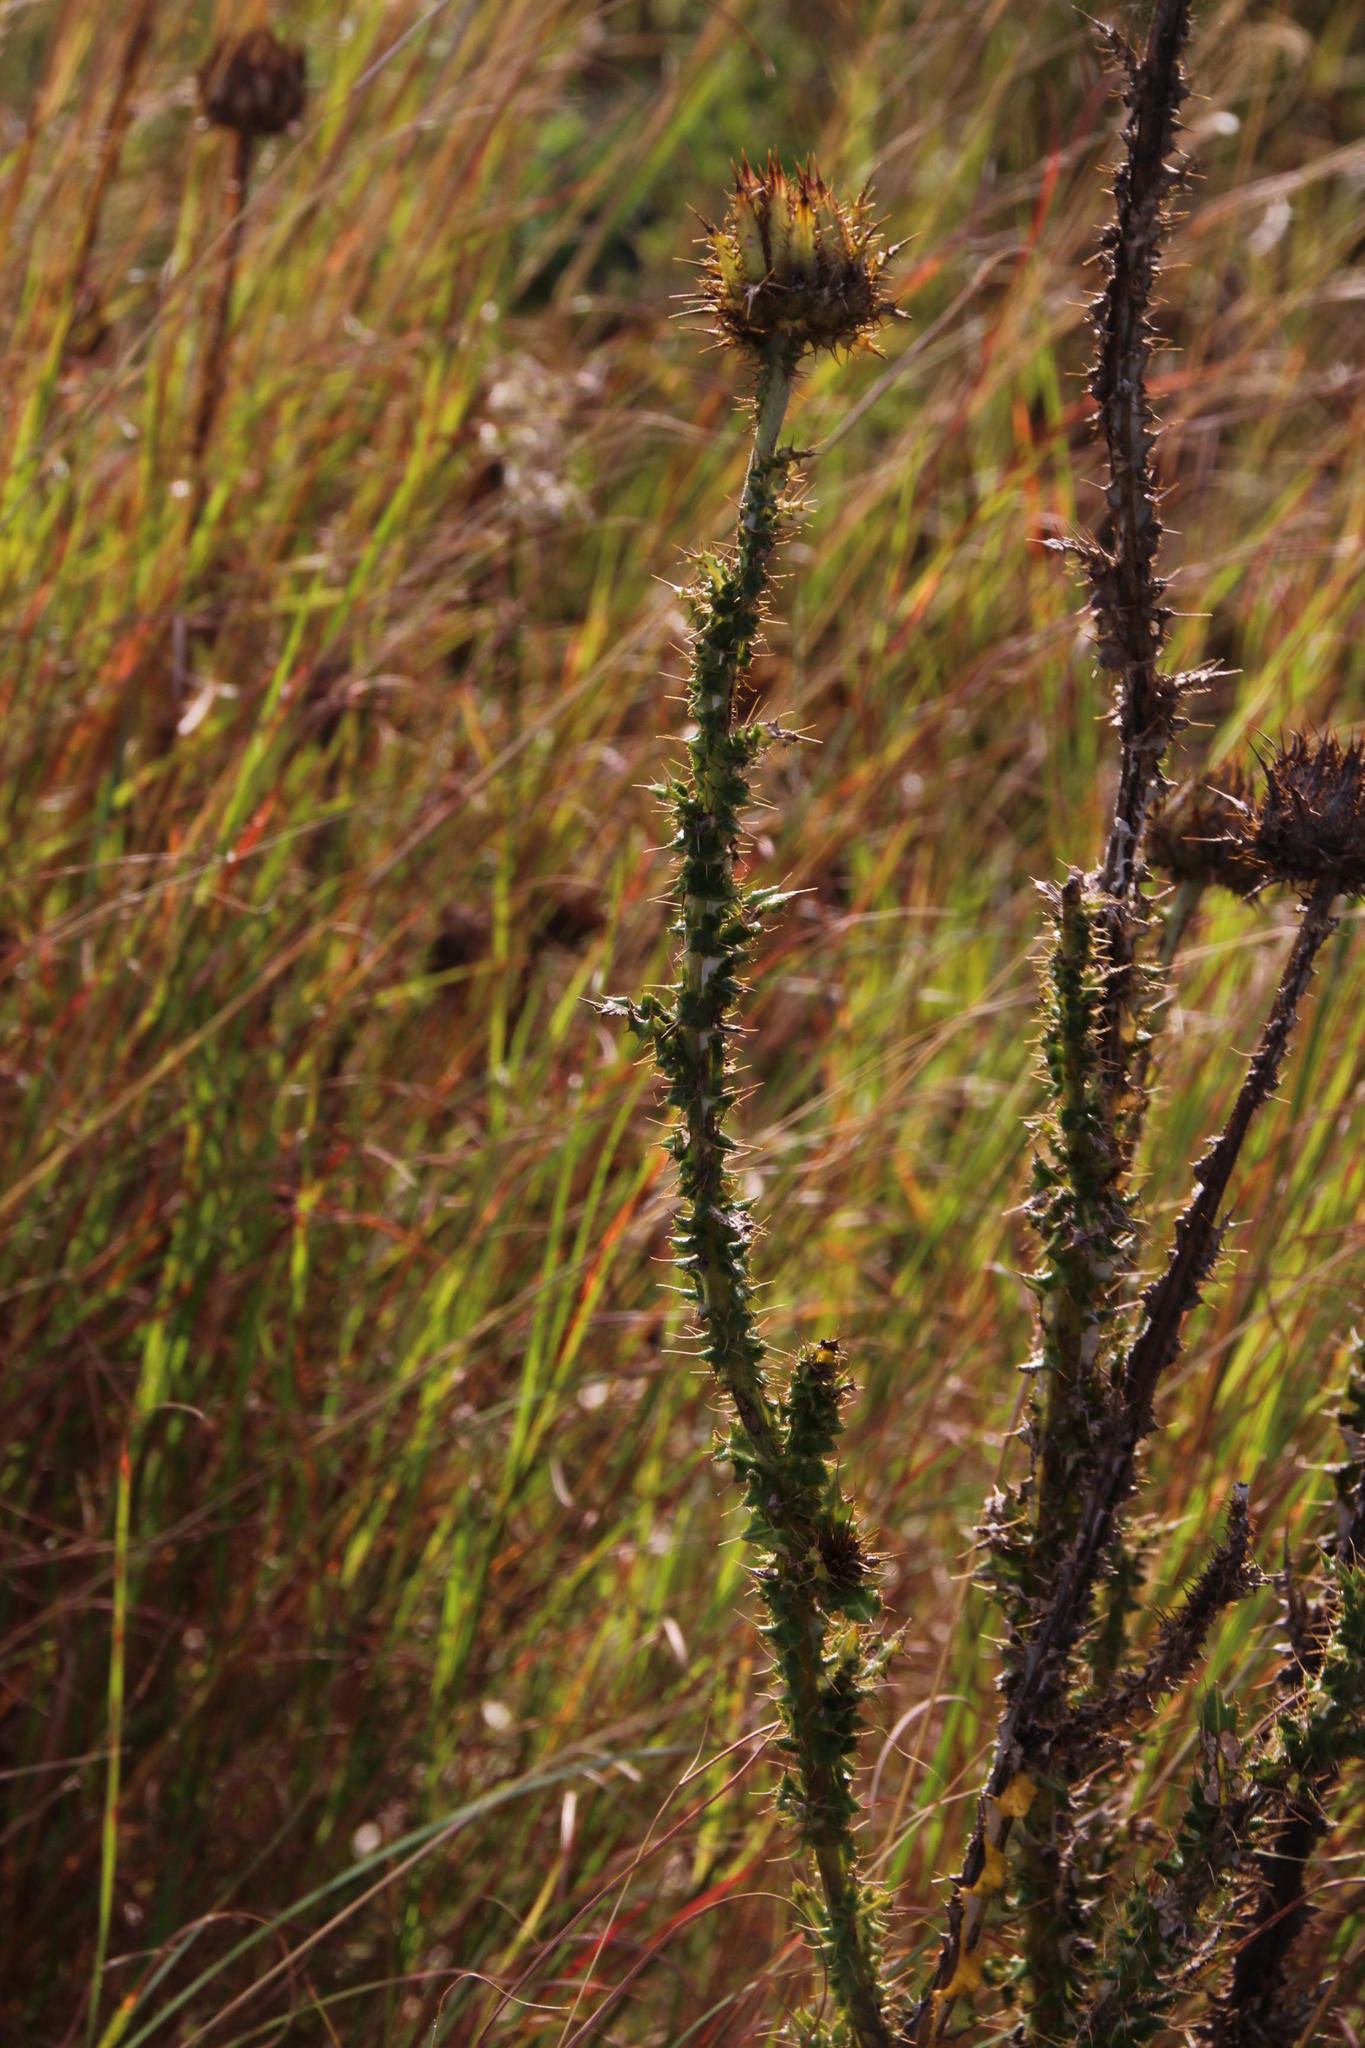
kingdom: Plantae
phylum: Tracheophyta
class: Magnoliopsida
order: Asterales
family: Asteraceae
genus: Berkheya
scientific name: Berkheya decurrens
